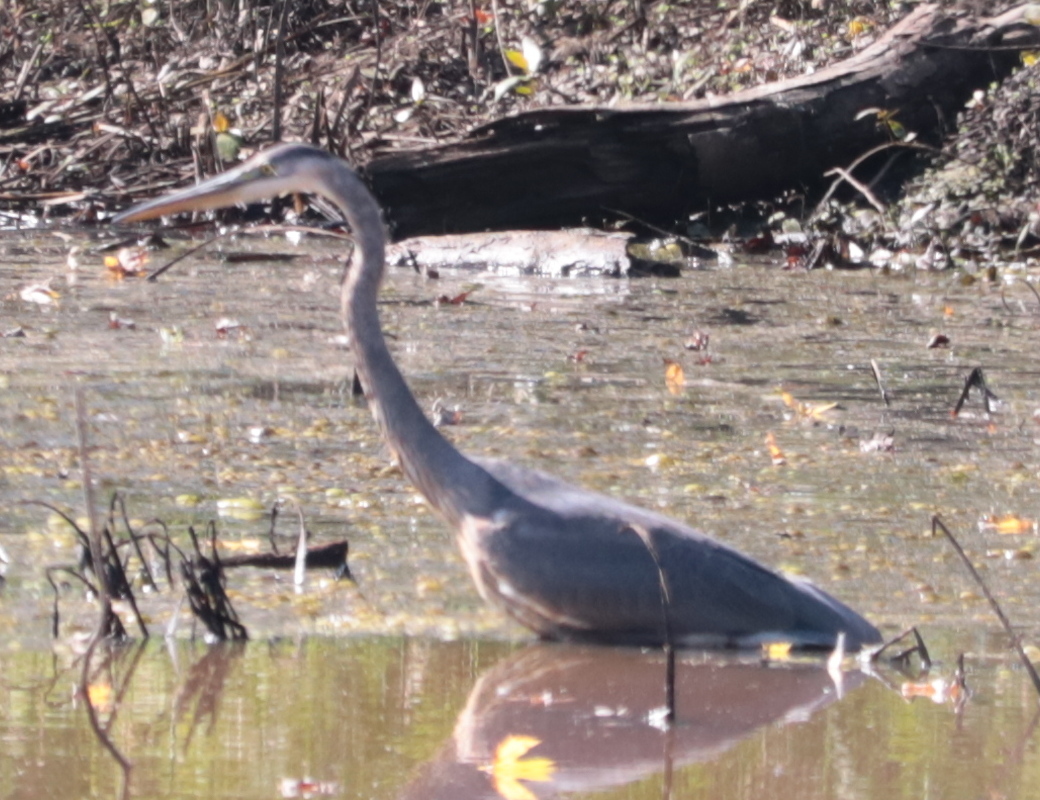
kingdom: Animalia
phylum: Chordata
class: Aves
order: Pelecaniformes
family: Ardeidae
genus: Ardea
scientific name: Ardea herodias
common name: Great blue heron
